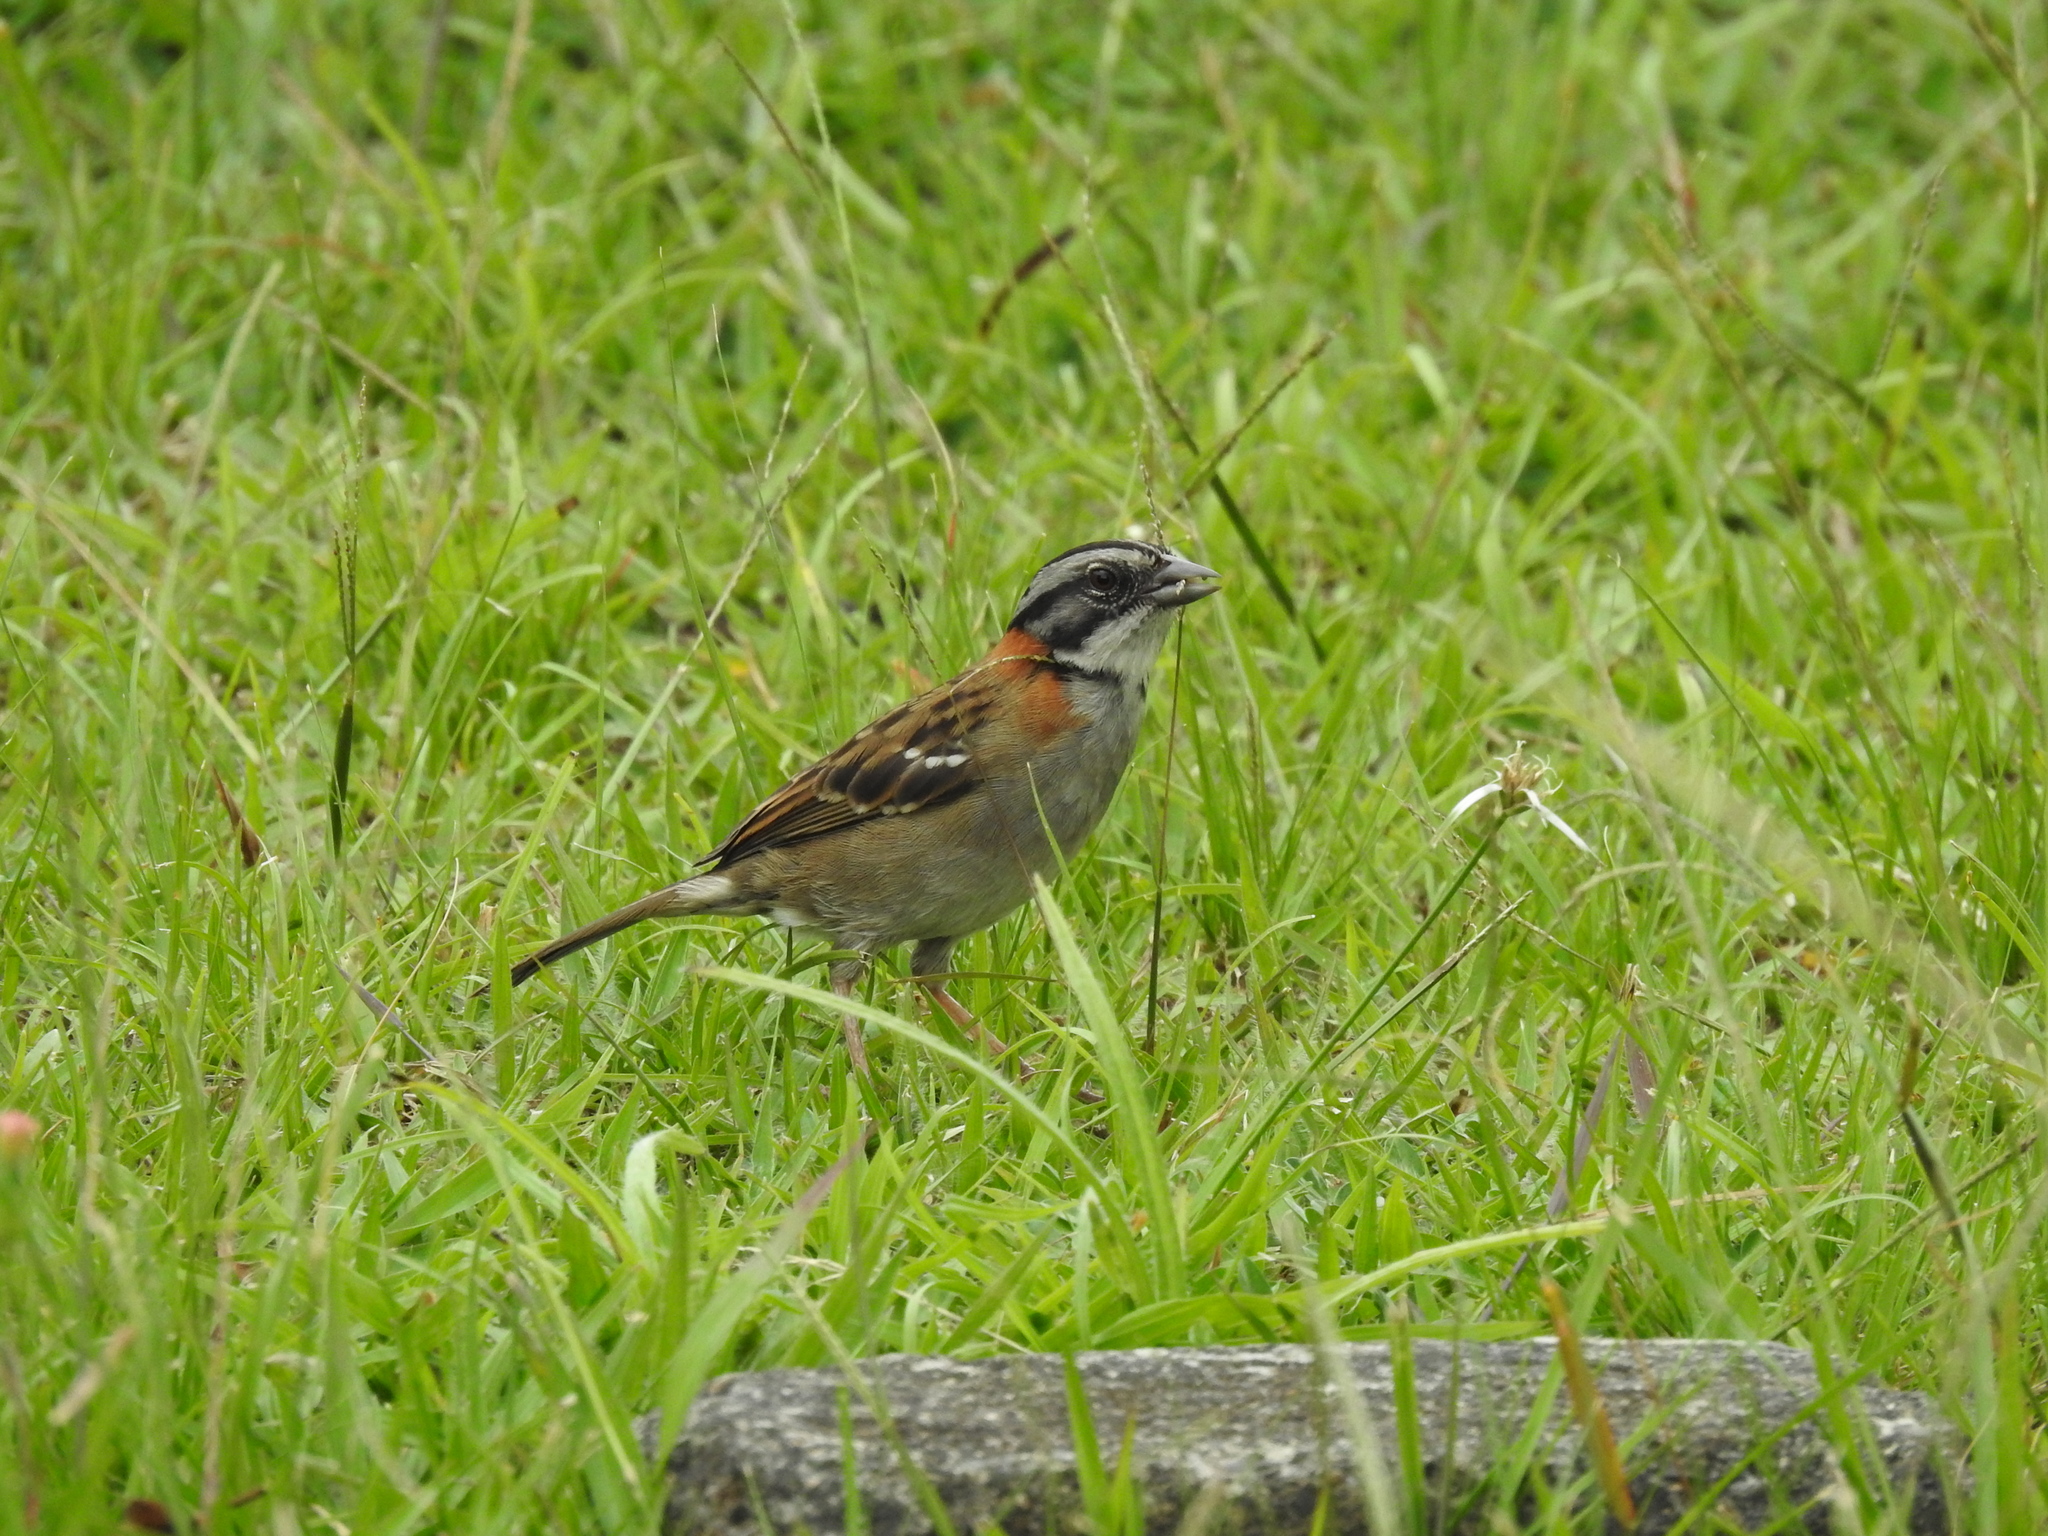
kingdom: Animalia
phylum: Chordata
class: Aves
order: Passeriformes
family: Passerellidae
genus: Zonotrichia
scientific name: Zonotrichia capensis
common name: Rufous-collared sparrow
